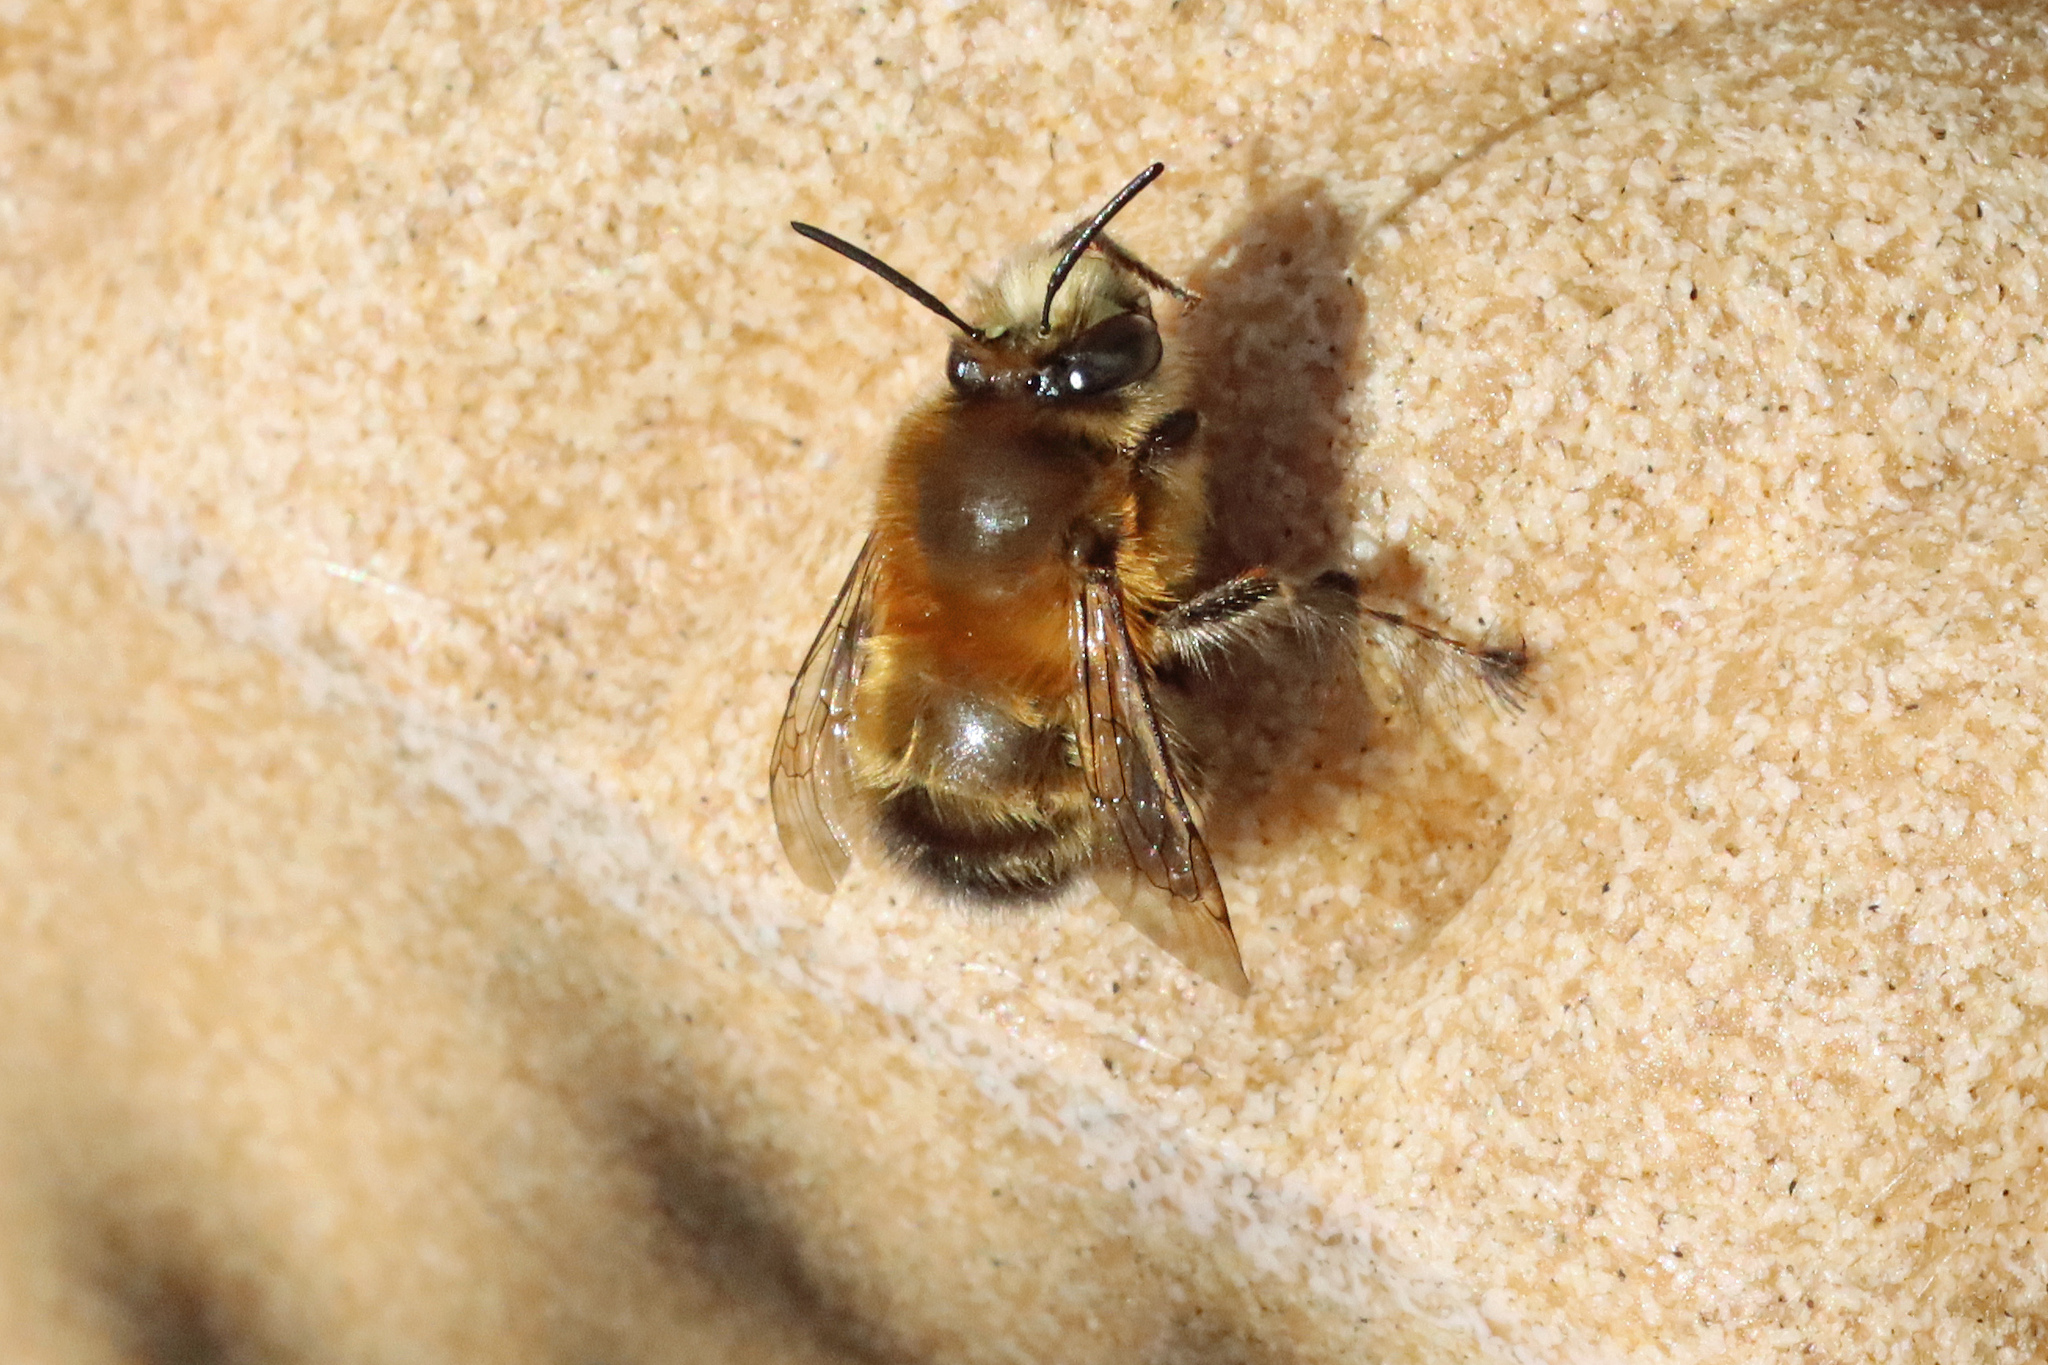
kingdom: Animalia
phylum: Arthropoda
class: Insecta
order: Hymenoptera
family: Apidae
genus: Anthophora
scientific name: Anthophora plumipes
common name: Hairy-footed flower bee
